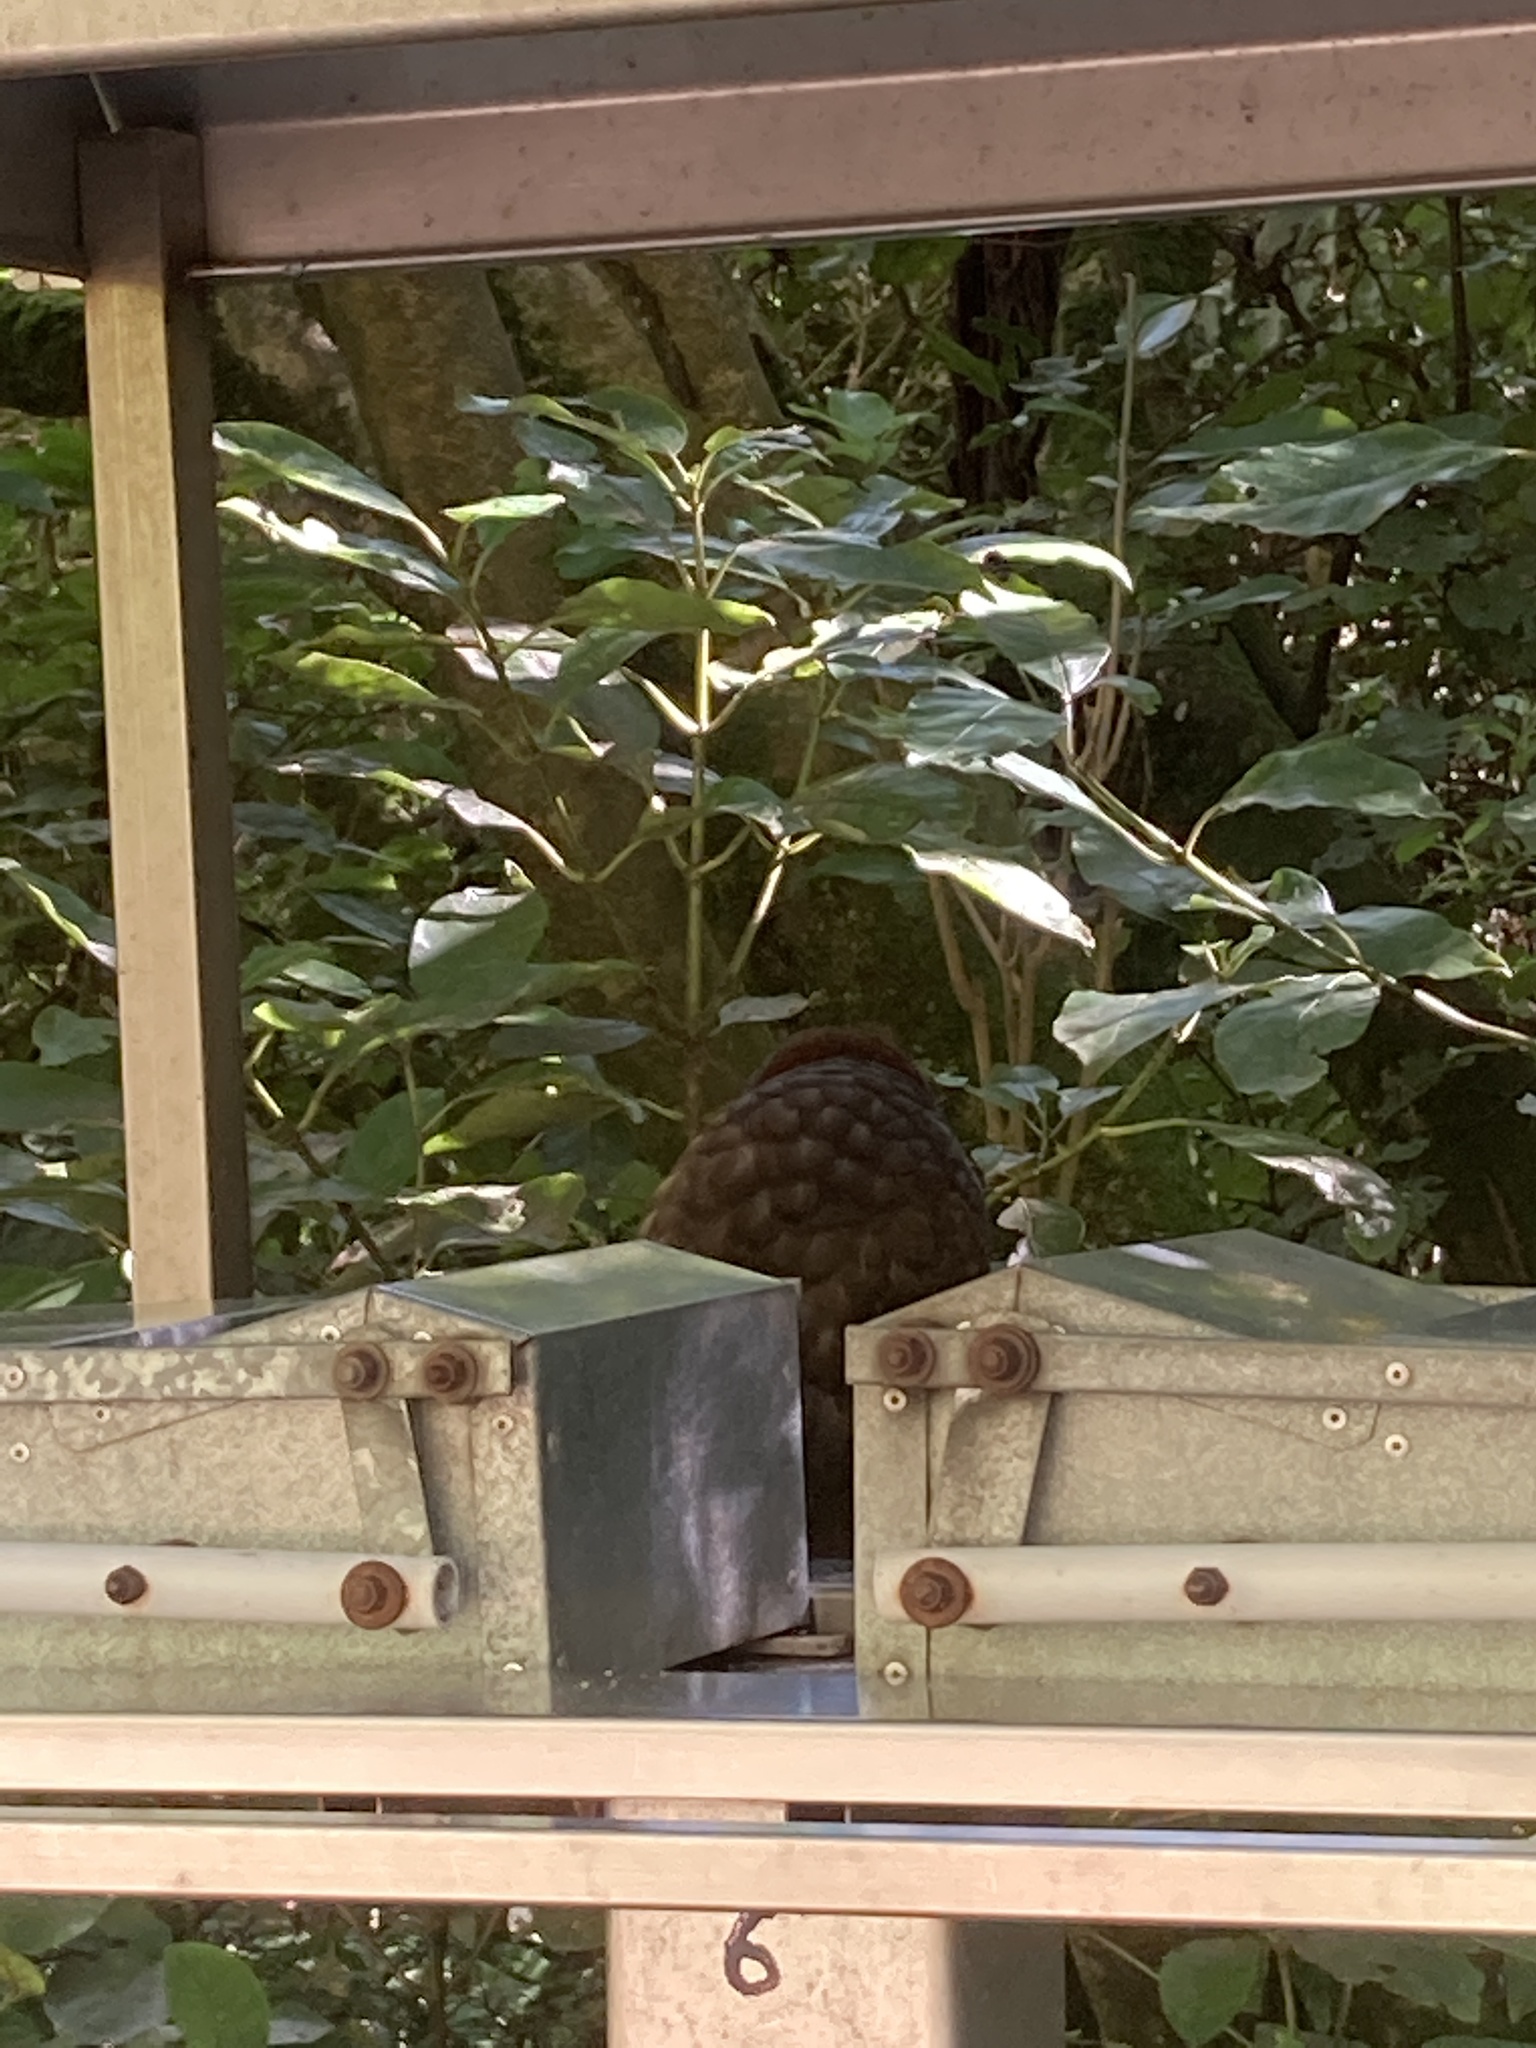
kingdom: Animalia
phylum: Chordata
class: Aves
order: Psittaciformes
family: Psittacidae
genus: Nestor
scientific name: Nestor meridionalis
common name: New zealand kaka
